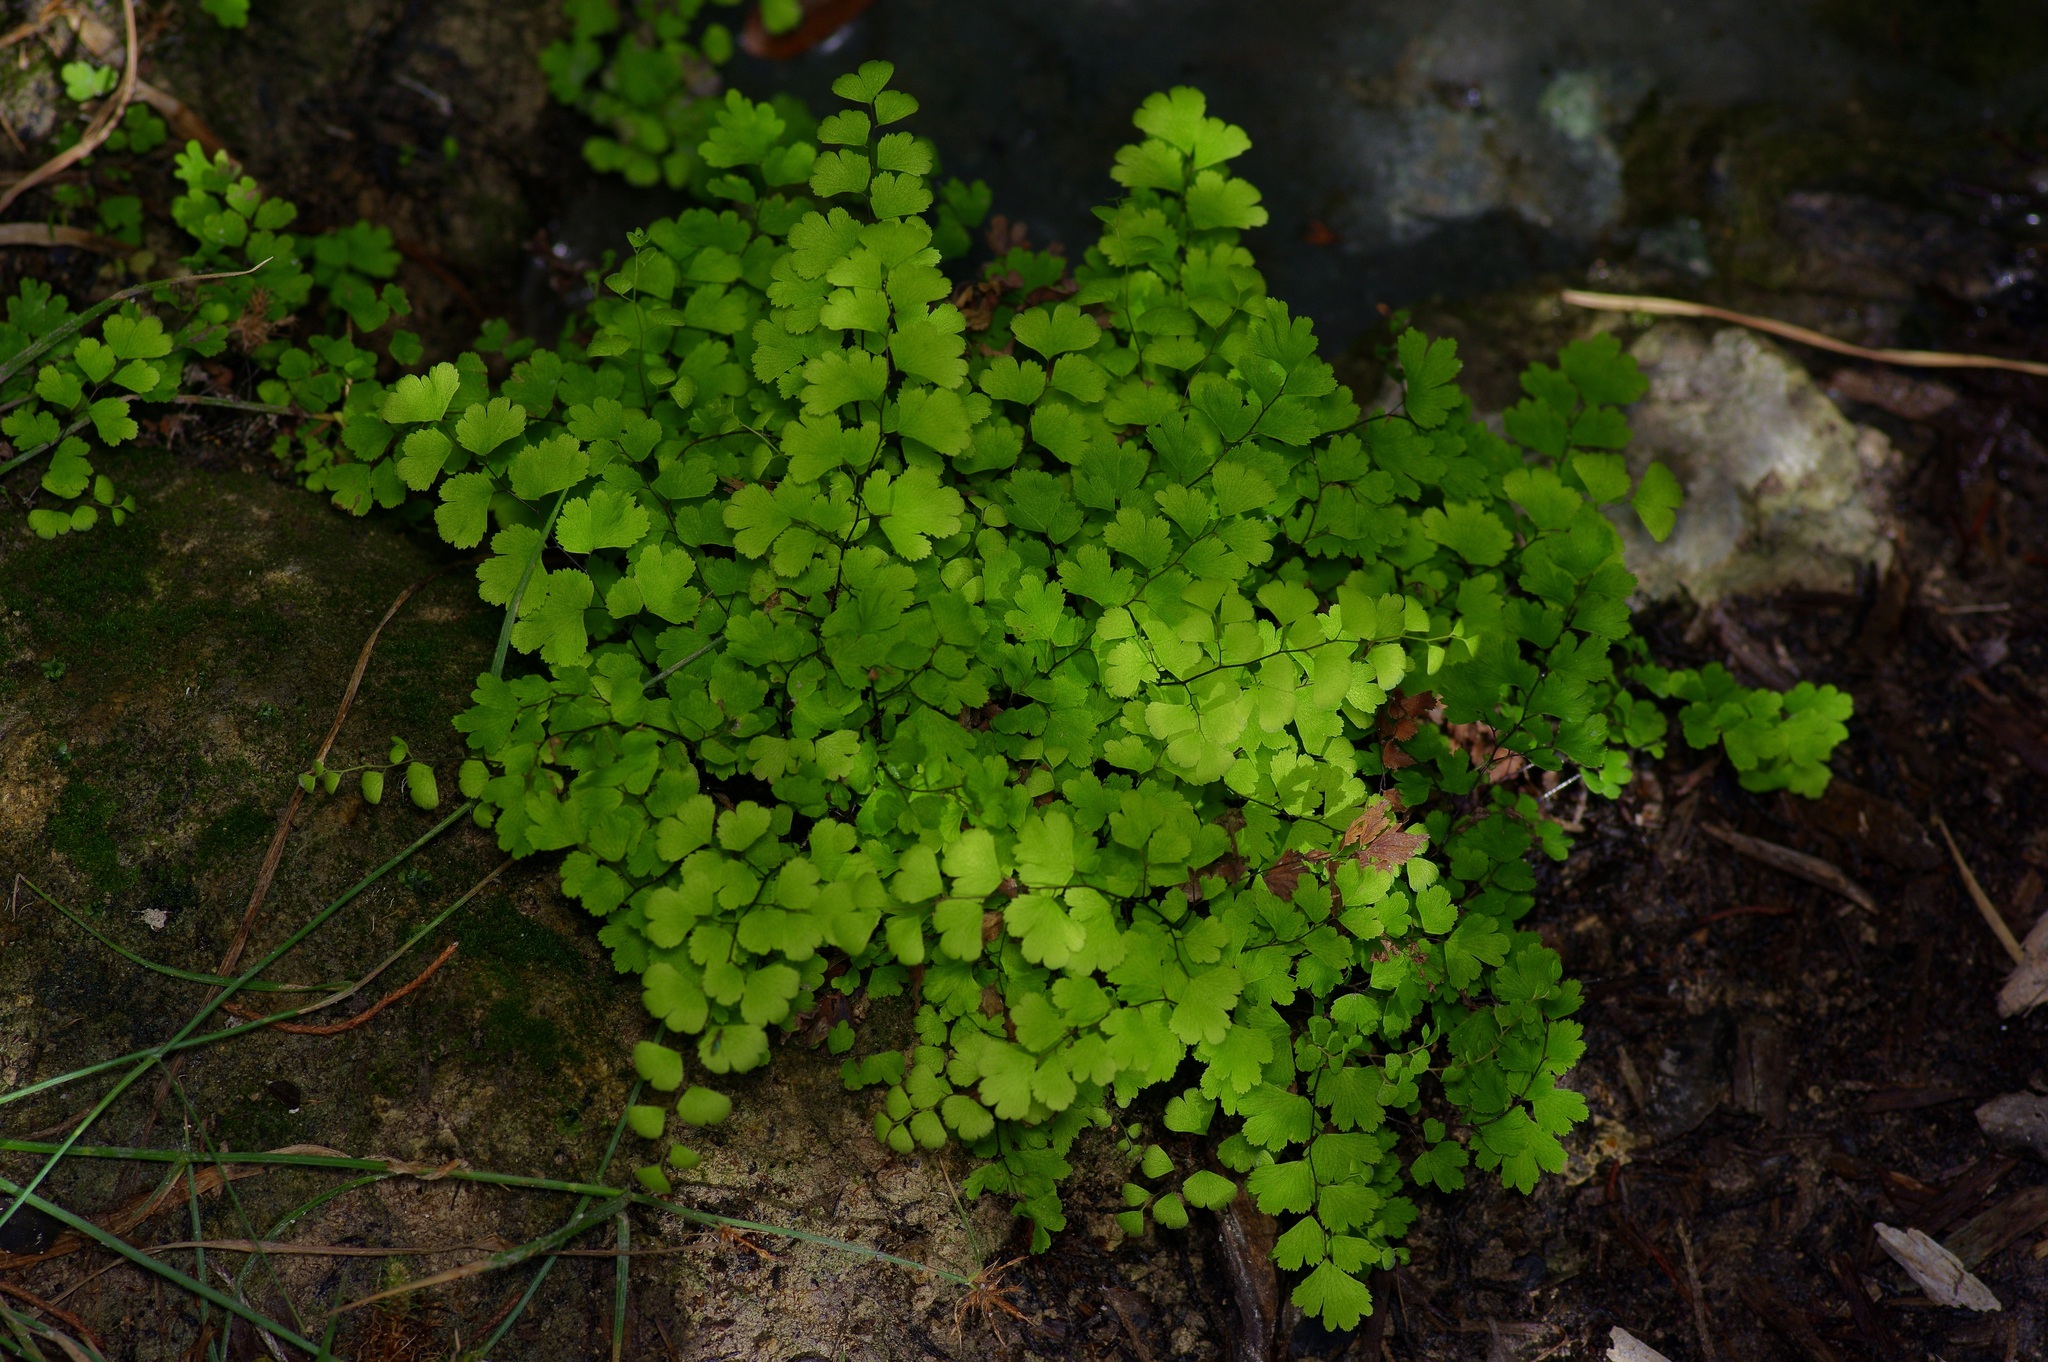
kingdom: Plantae
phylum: Tracheophyta
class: Polypodiopsida
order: Polypodiales
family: Pteridaceae
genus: Adiantum
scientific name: Adiantum capillus-veneris
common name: Maidenhair fern
